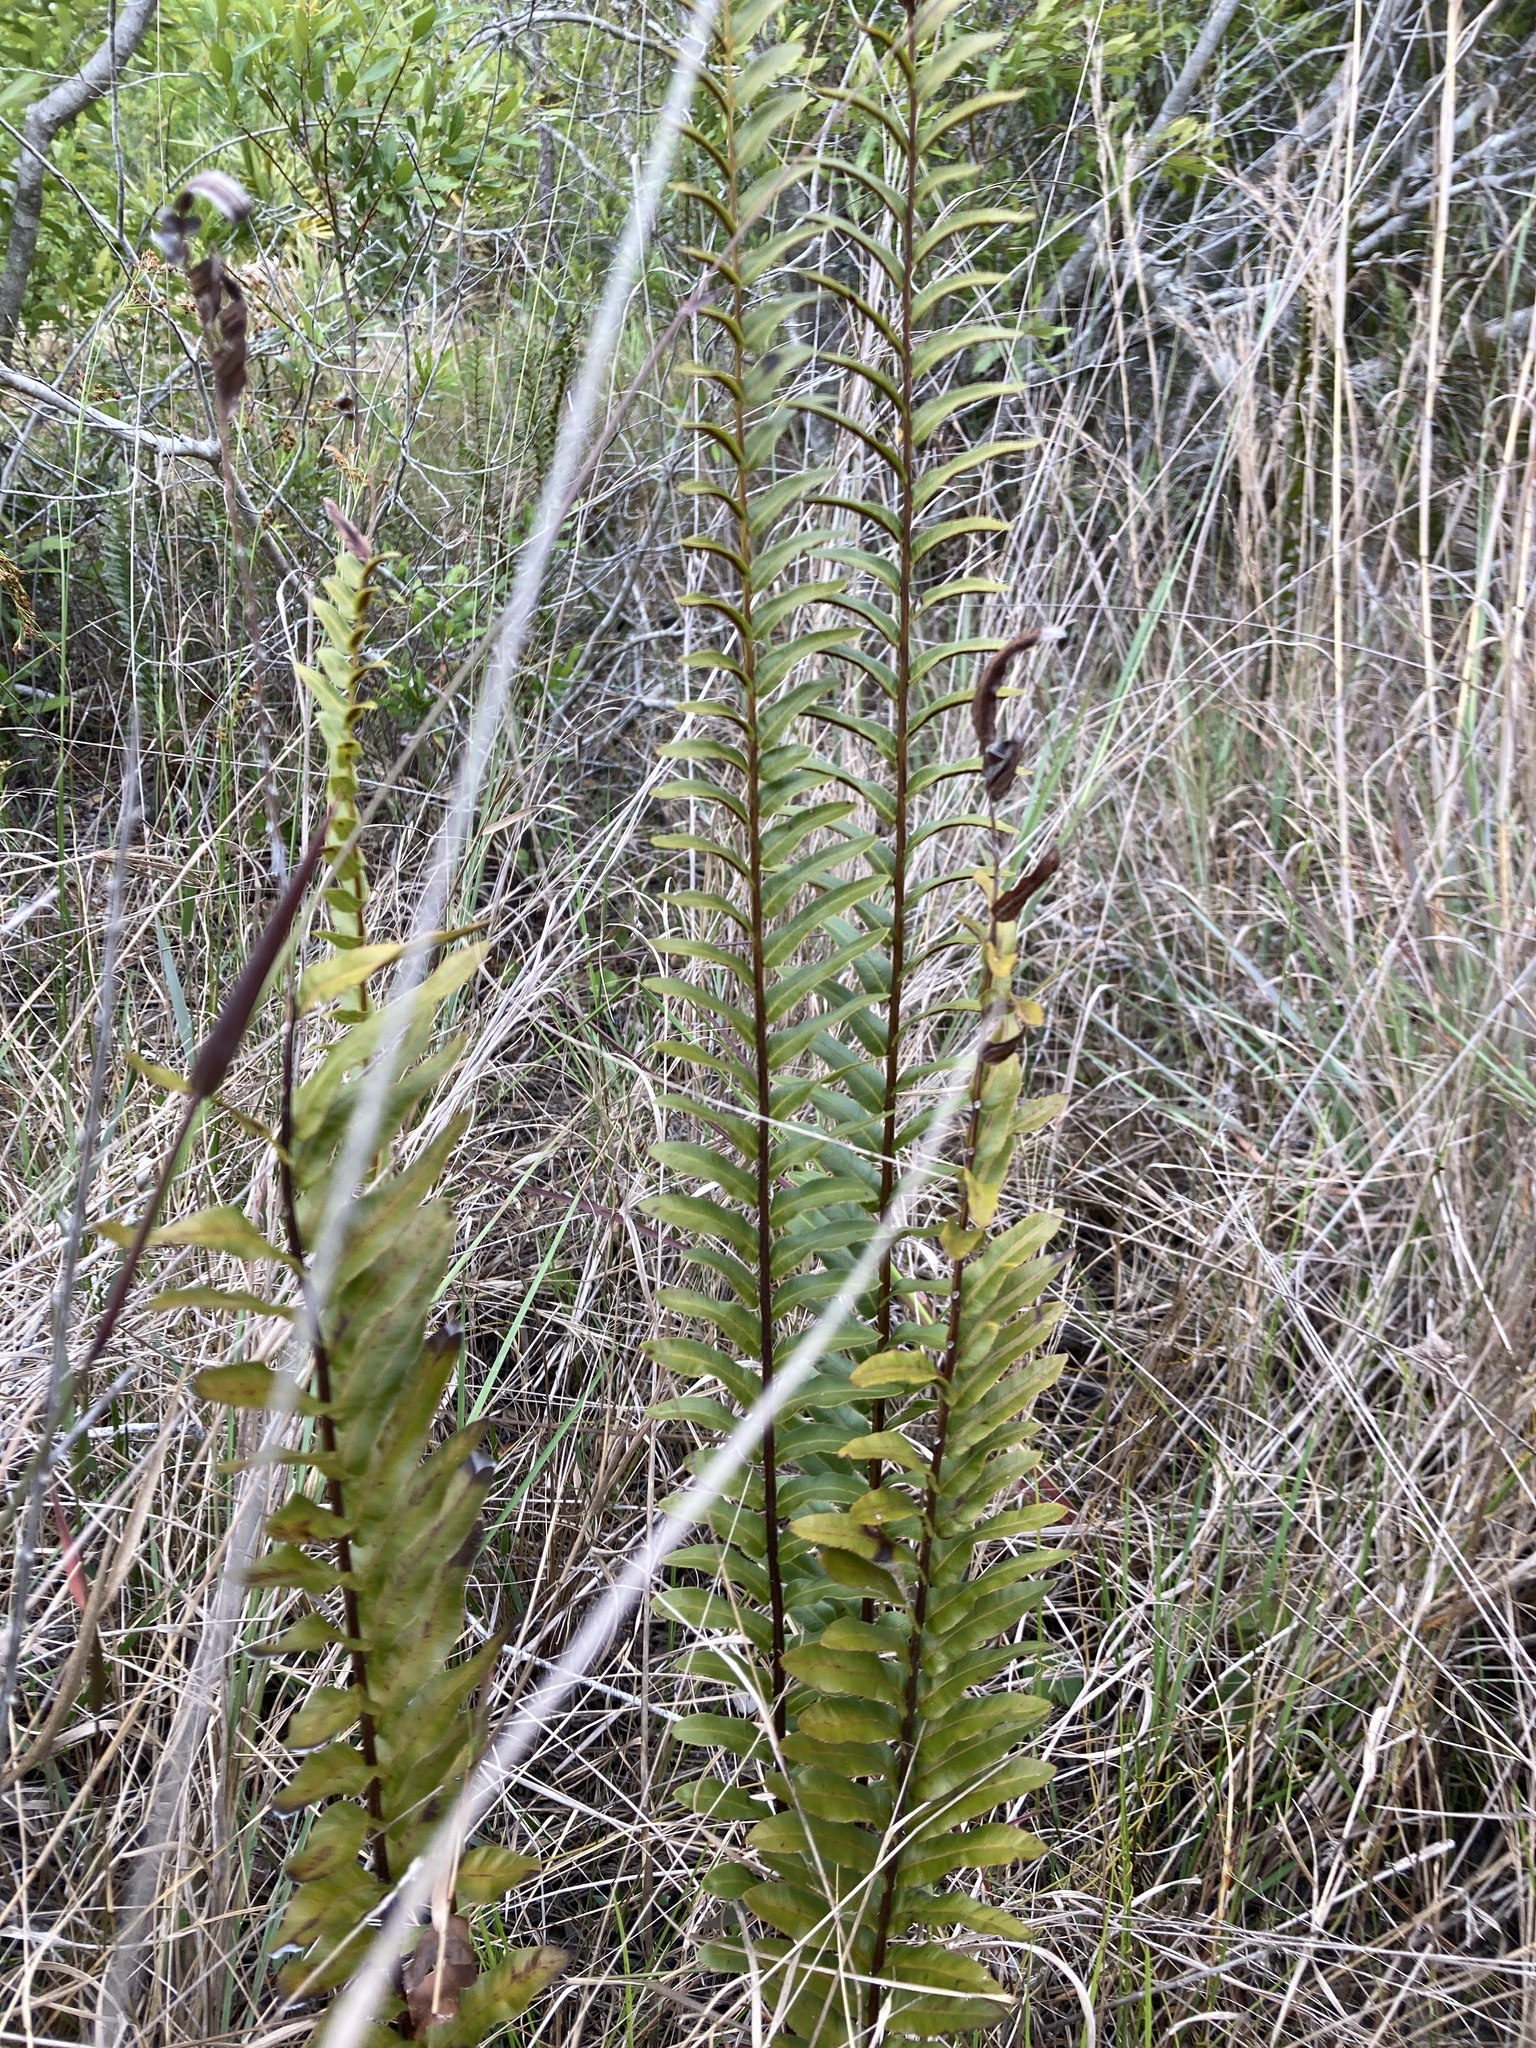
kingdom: Plantae
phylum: Tracheophyta
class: Polypodiopsida
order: Polypodiales
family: Blechnaceae
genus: Telmatoblechnum
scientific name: Telmatoblechnum serrulatum
